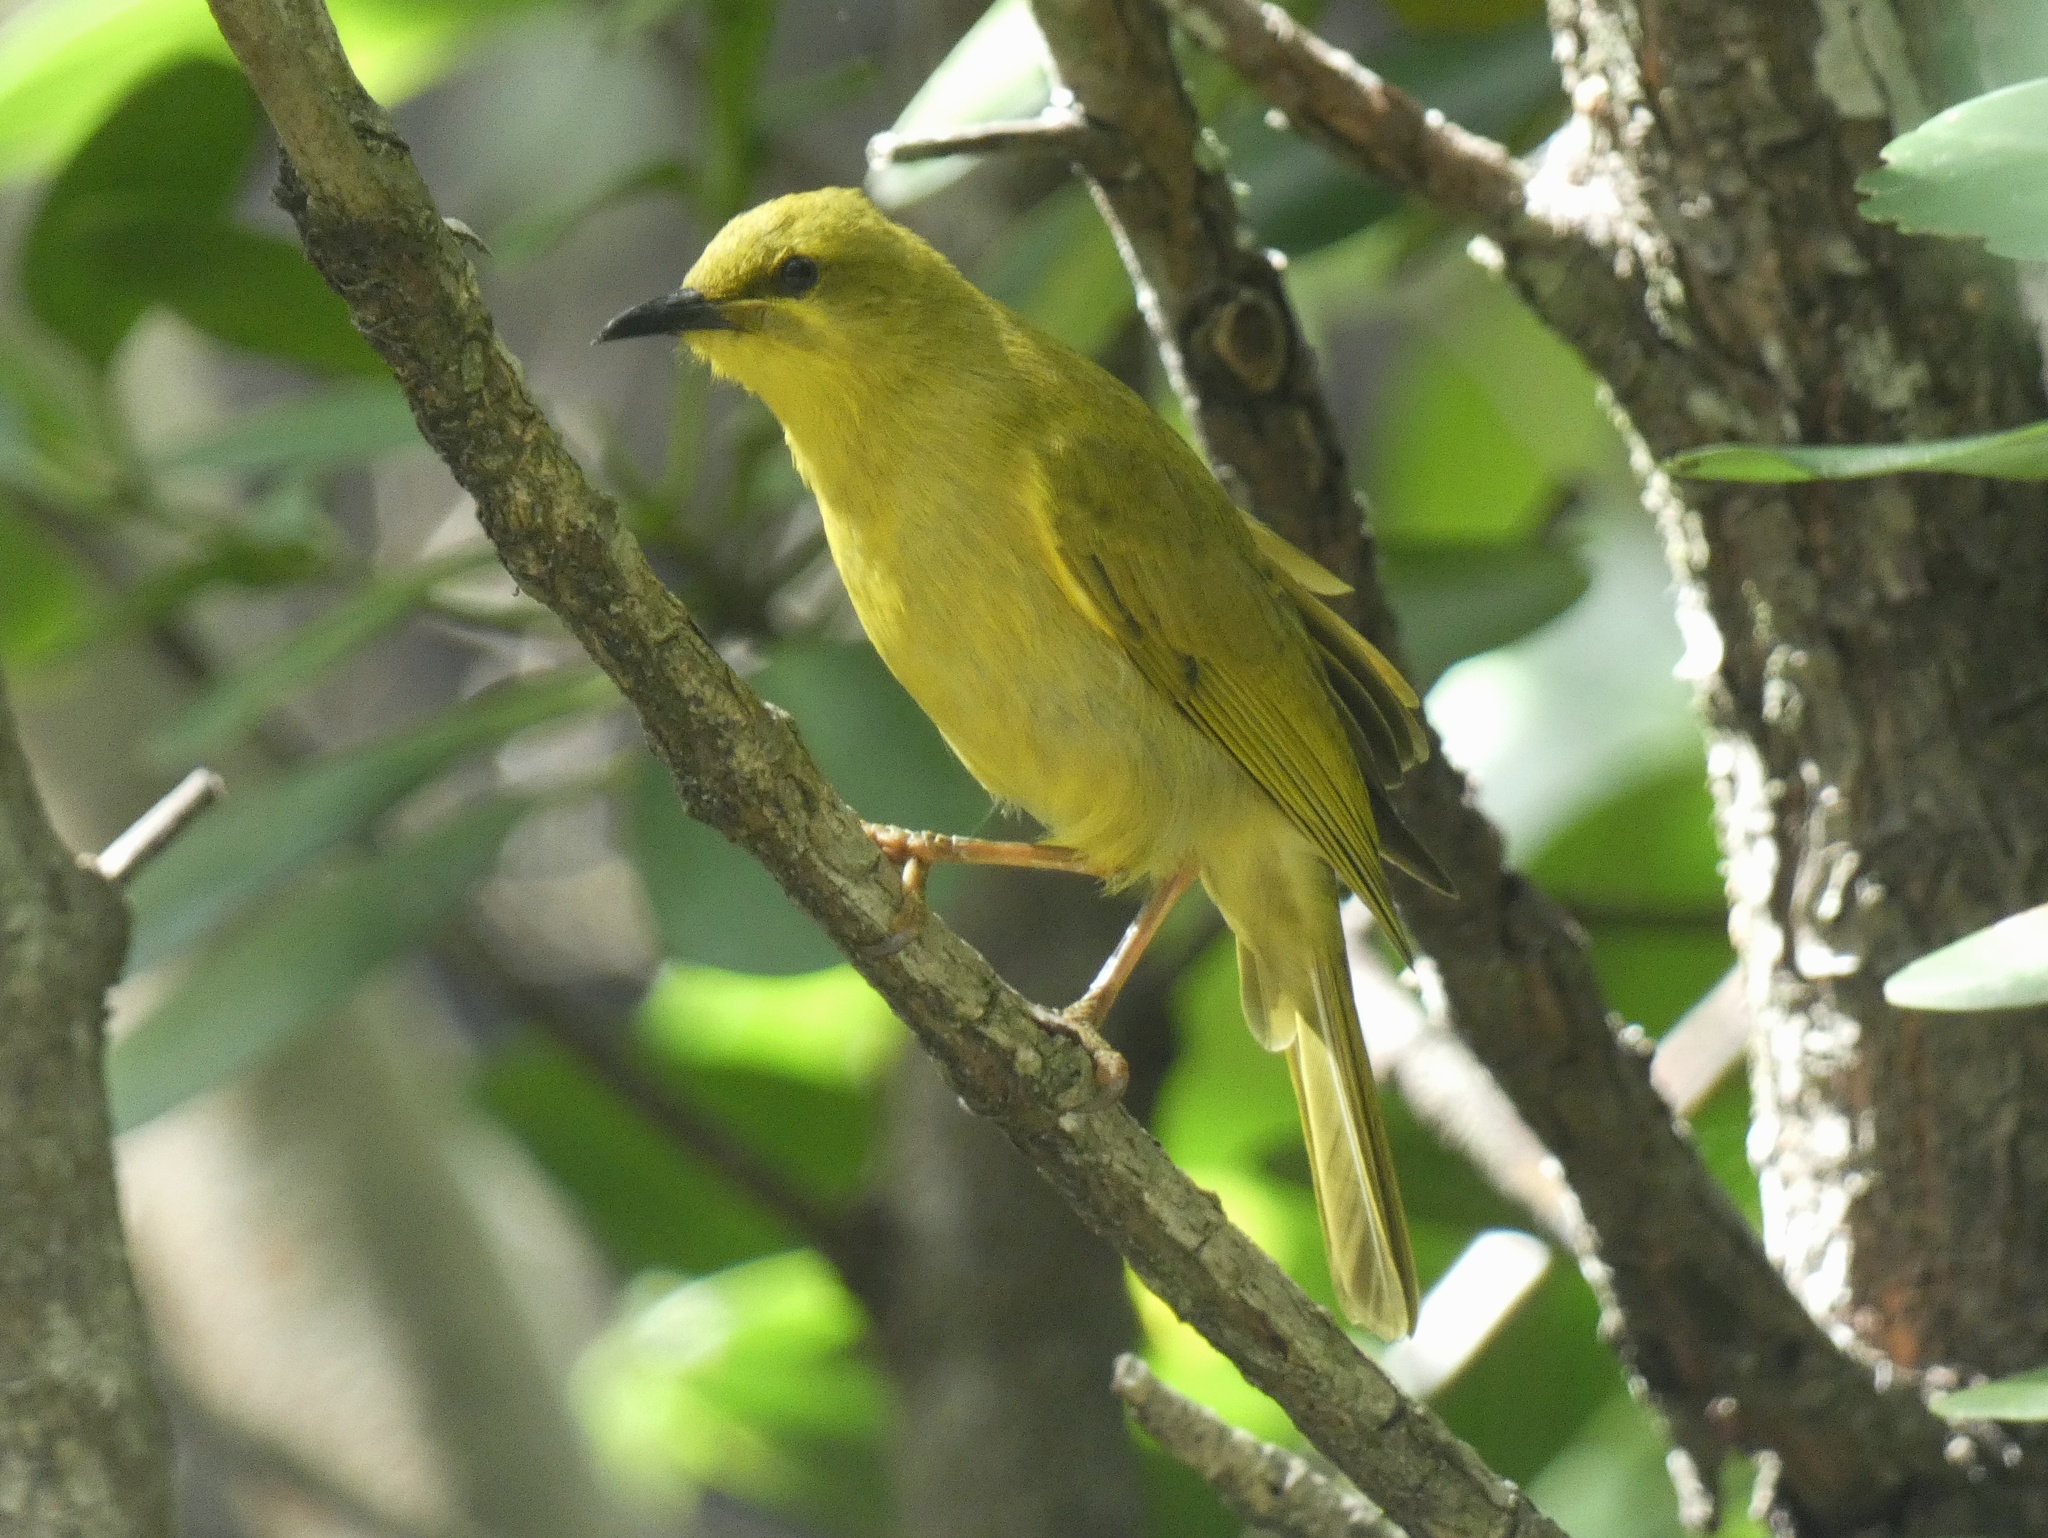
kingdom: Animalia
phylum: Chordata
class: Aves
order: Passeriformes
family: Meliphagidae
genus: Stomiopera
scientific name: Stomiopera flava
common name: Yellow honeyeater
